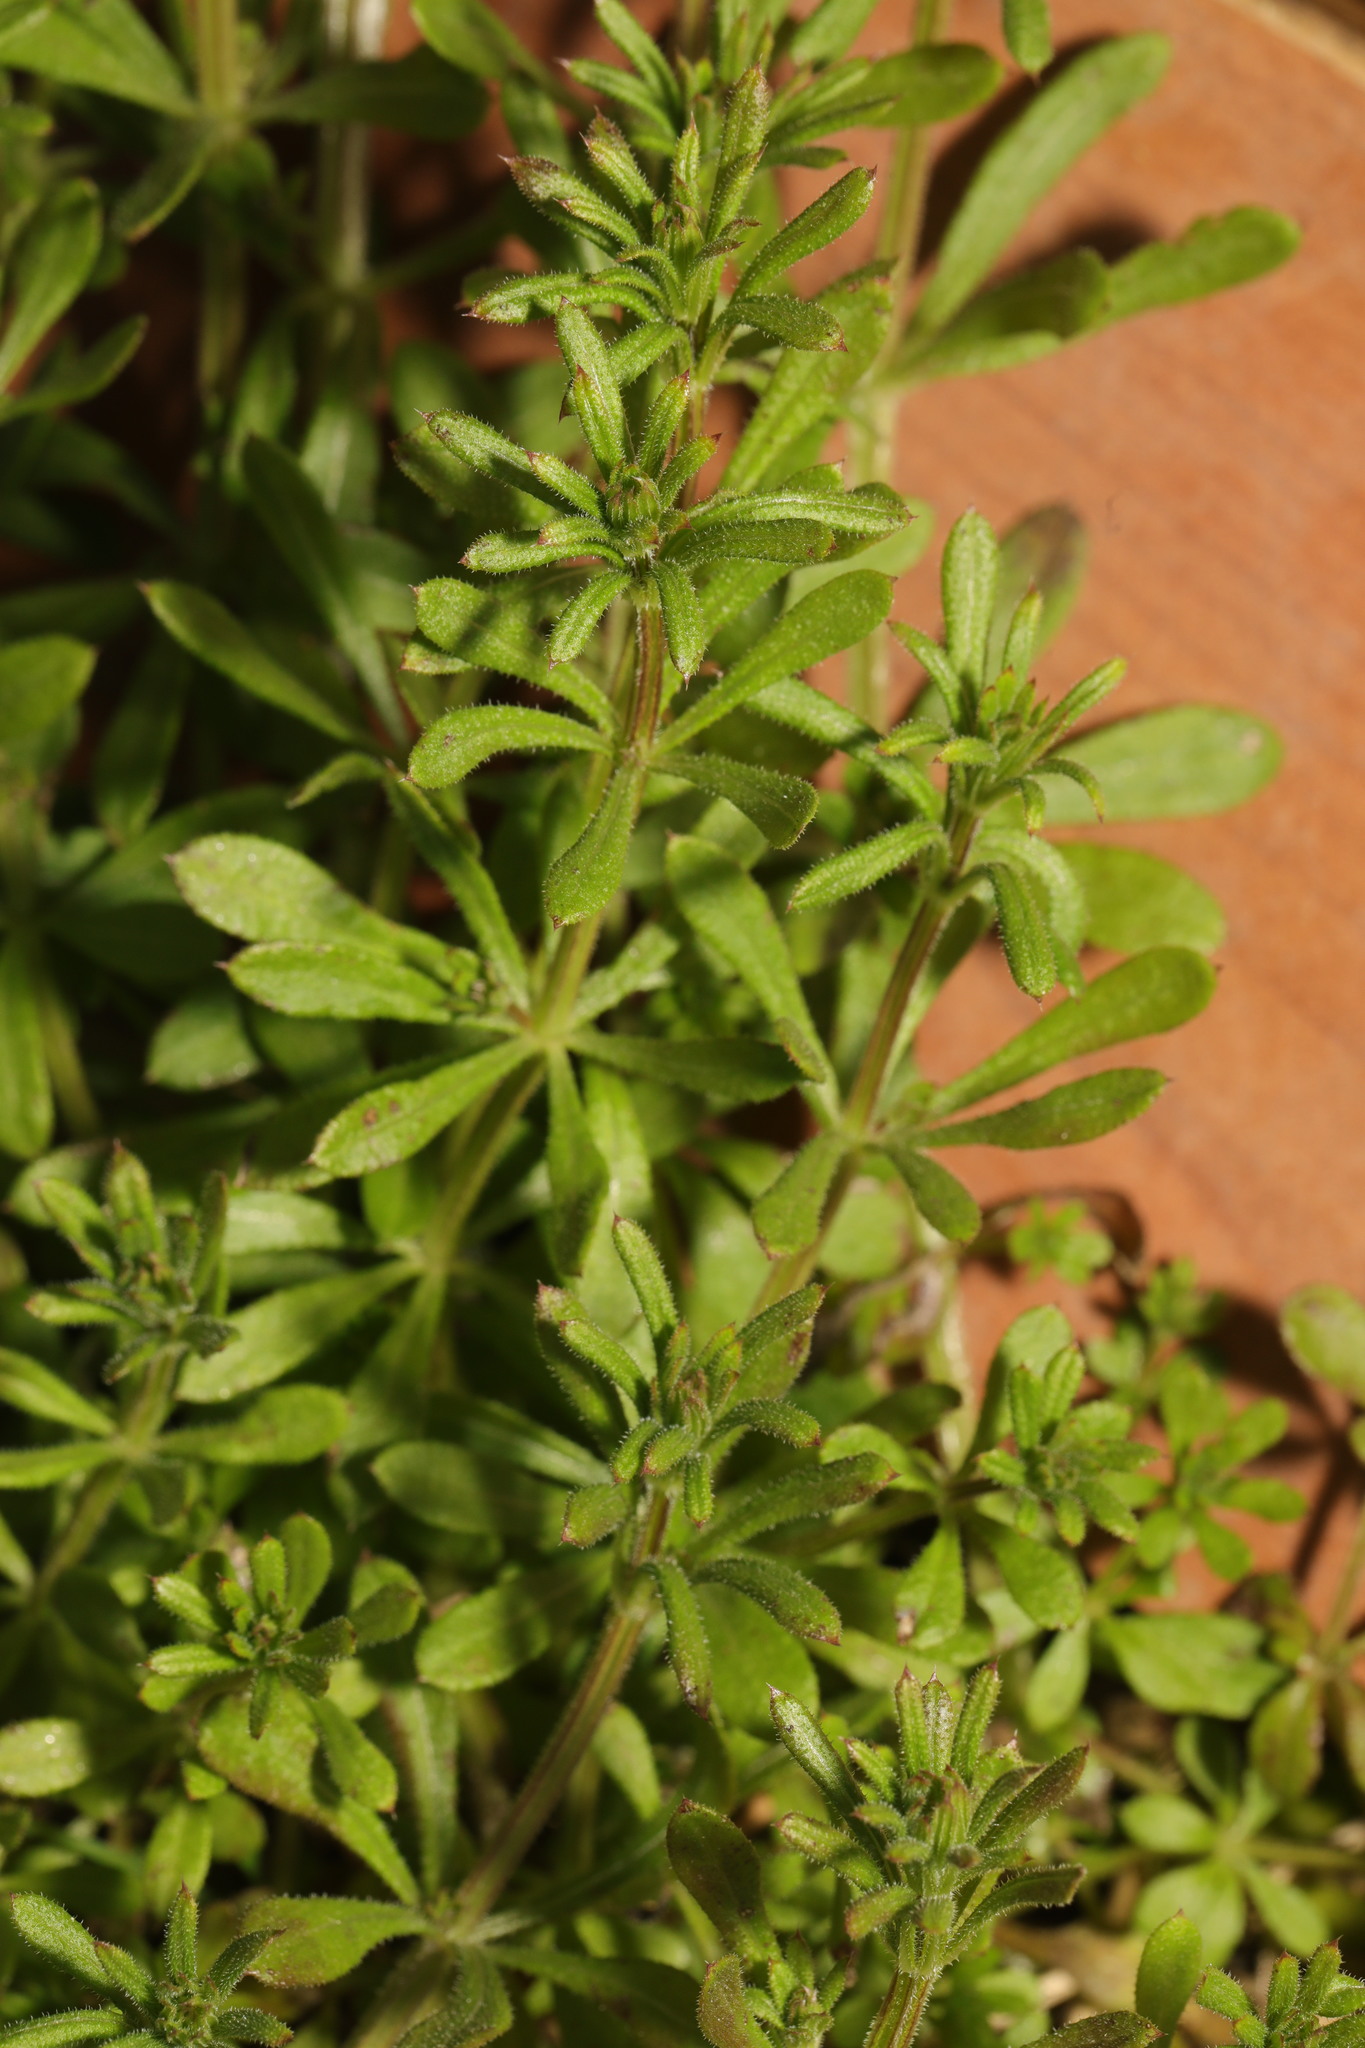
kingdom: Plantae
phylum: Tracheophyta
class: Magnoliopsida
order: Gentianales
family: Rubiaceae
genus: Galium
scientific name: Galium aparine
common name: Cleavers
